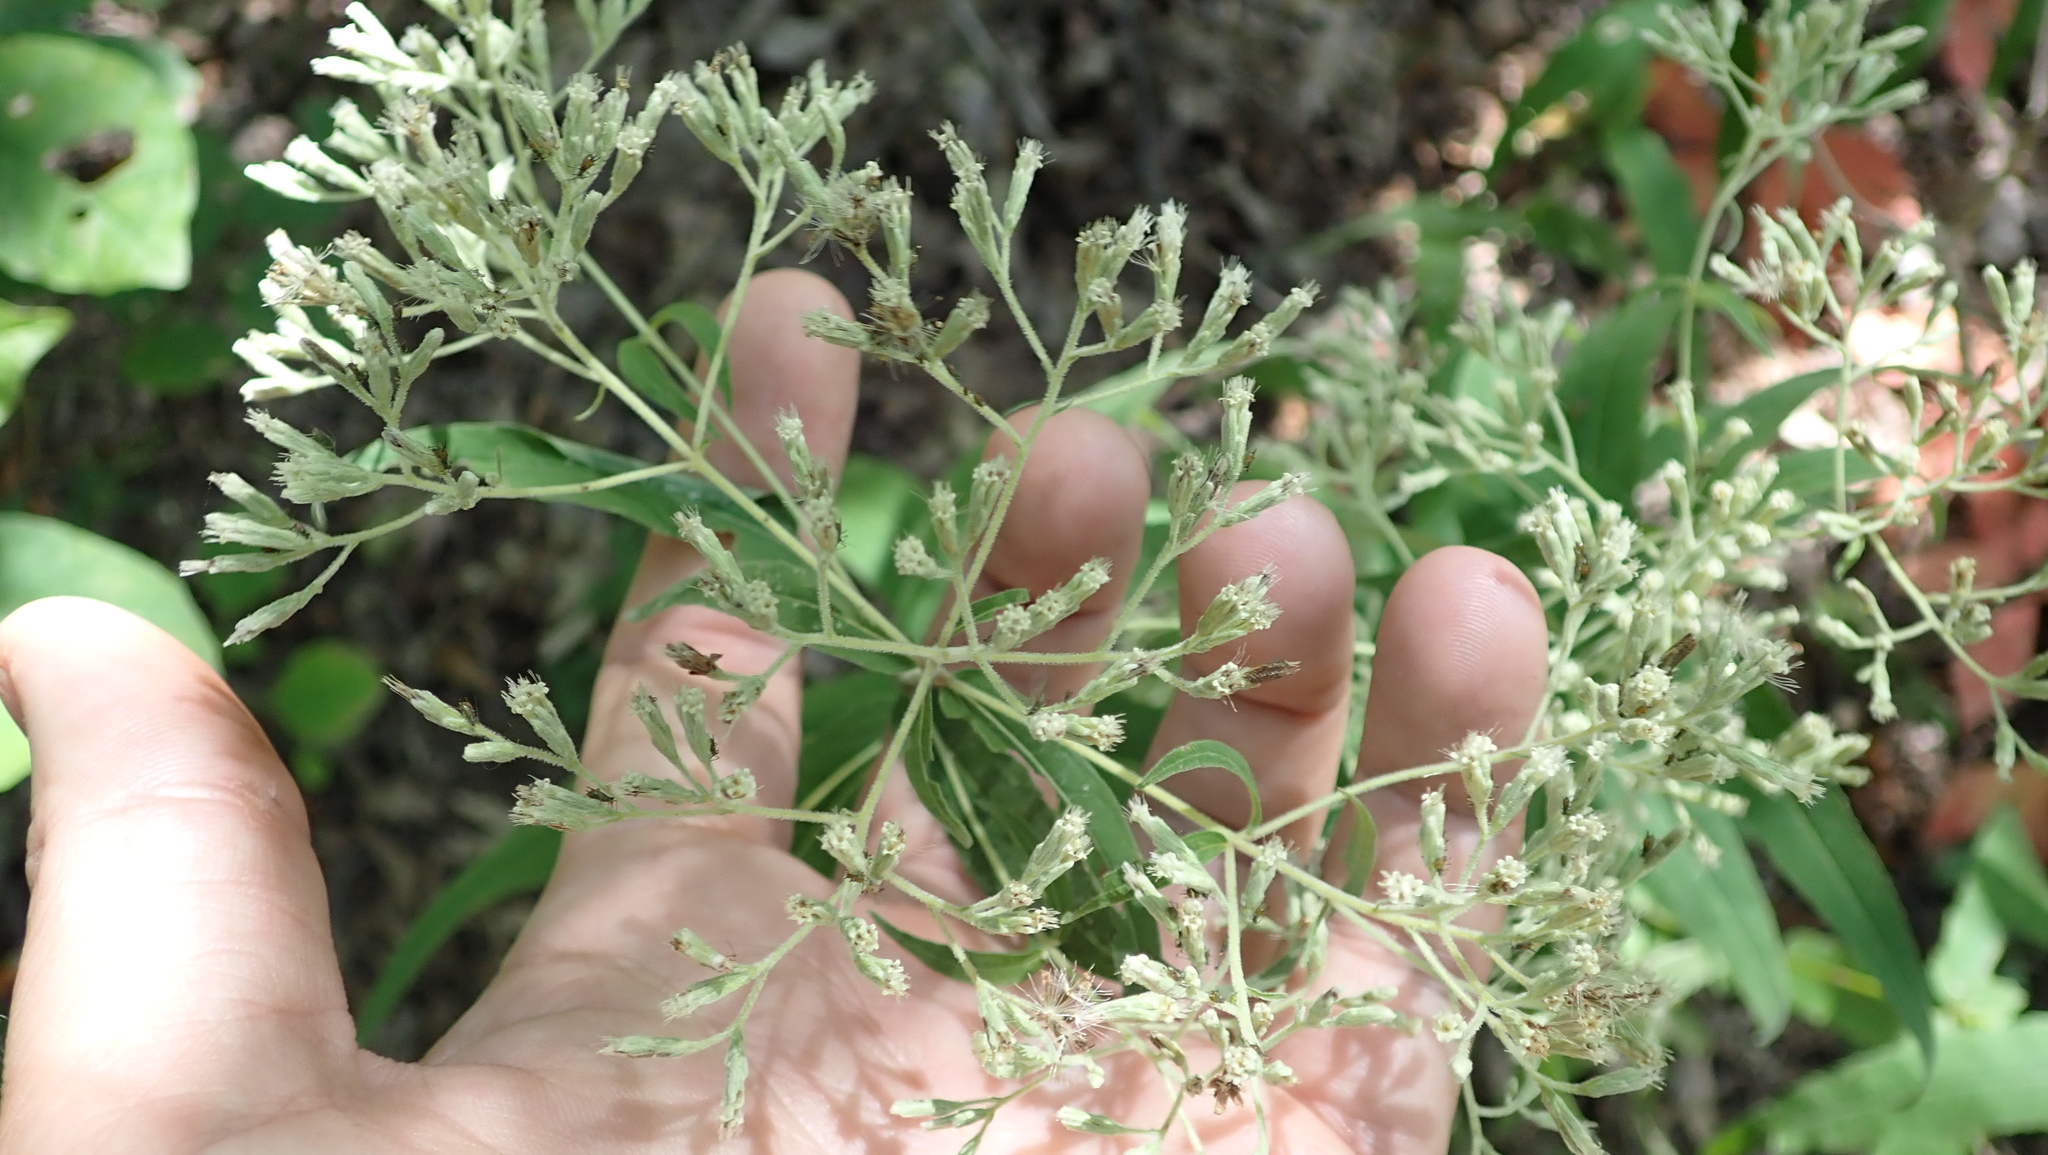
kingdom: Plantae
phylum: Tracheophyta
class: Magnoliopsida
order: Asterales
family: Asteraceae
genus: Eupatorium
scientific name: Eupatorium sessilifolium
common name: Upland boneset
